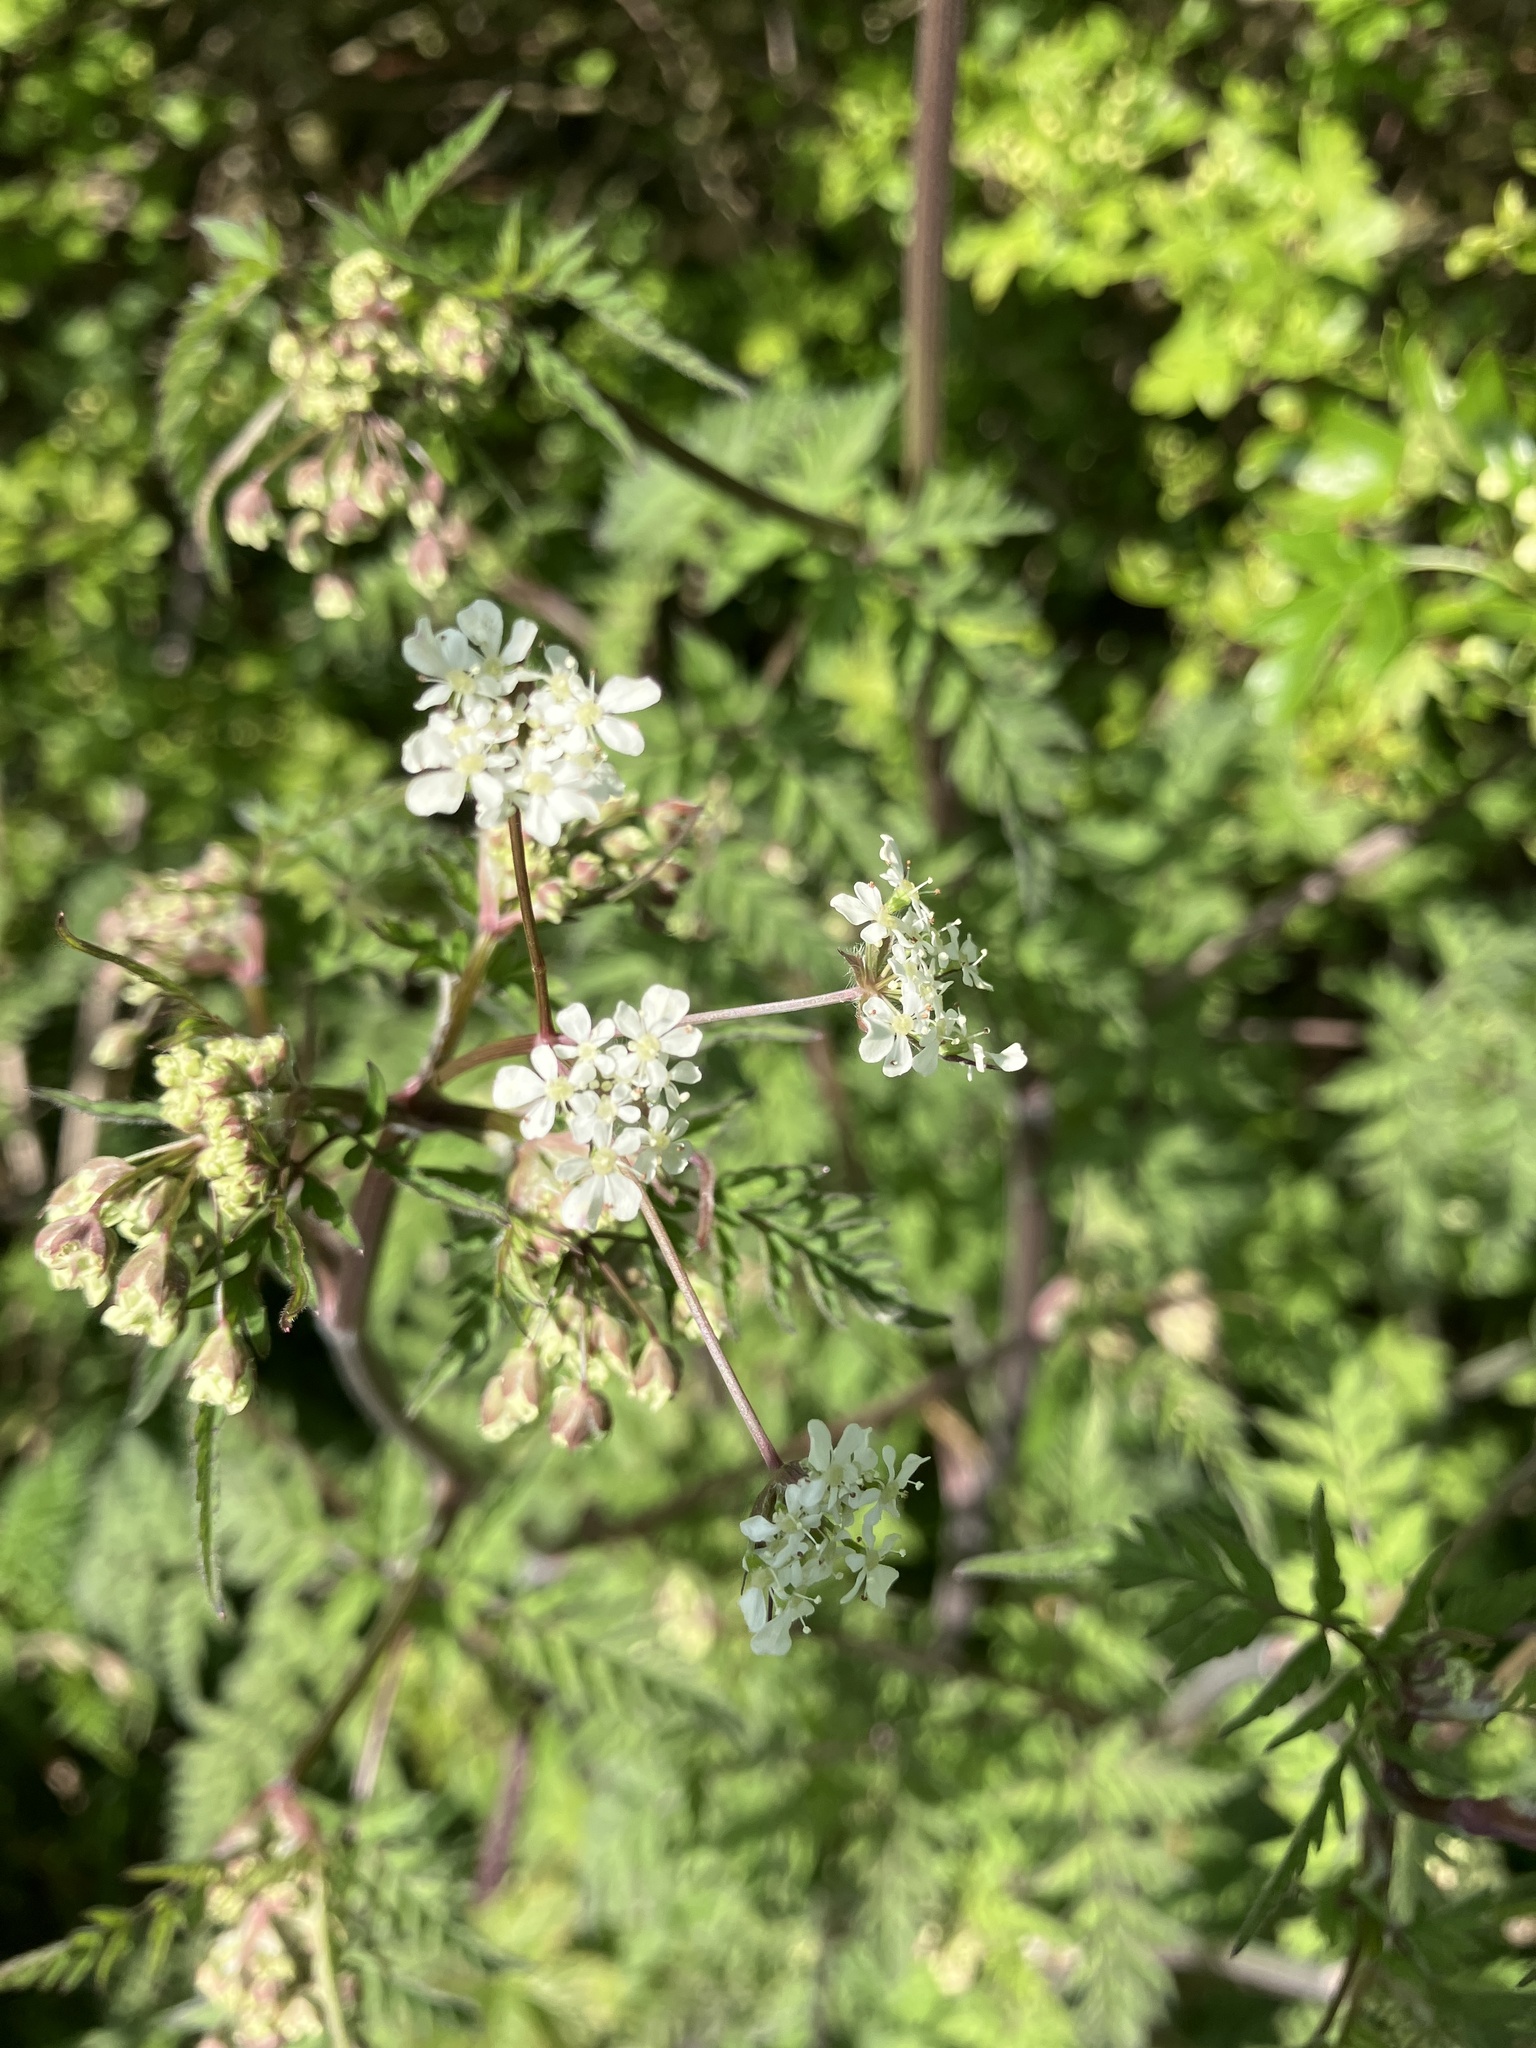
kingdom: Plantae
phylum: Tracheophyta
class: Magnoliopsida
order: Apiales
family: Apiaceae
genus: Anthriscus
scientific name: Anthriscus sylvestris
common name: Cow parsley
